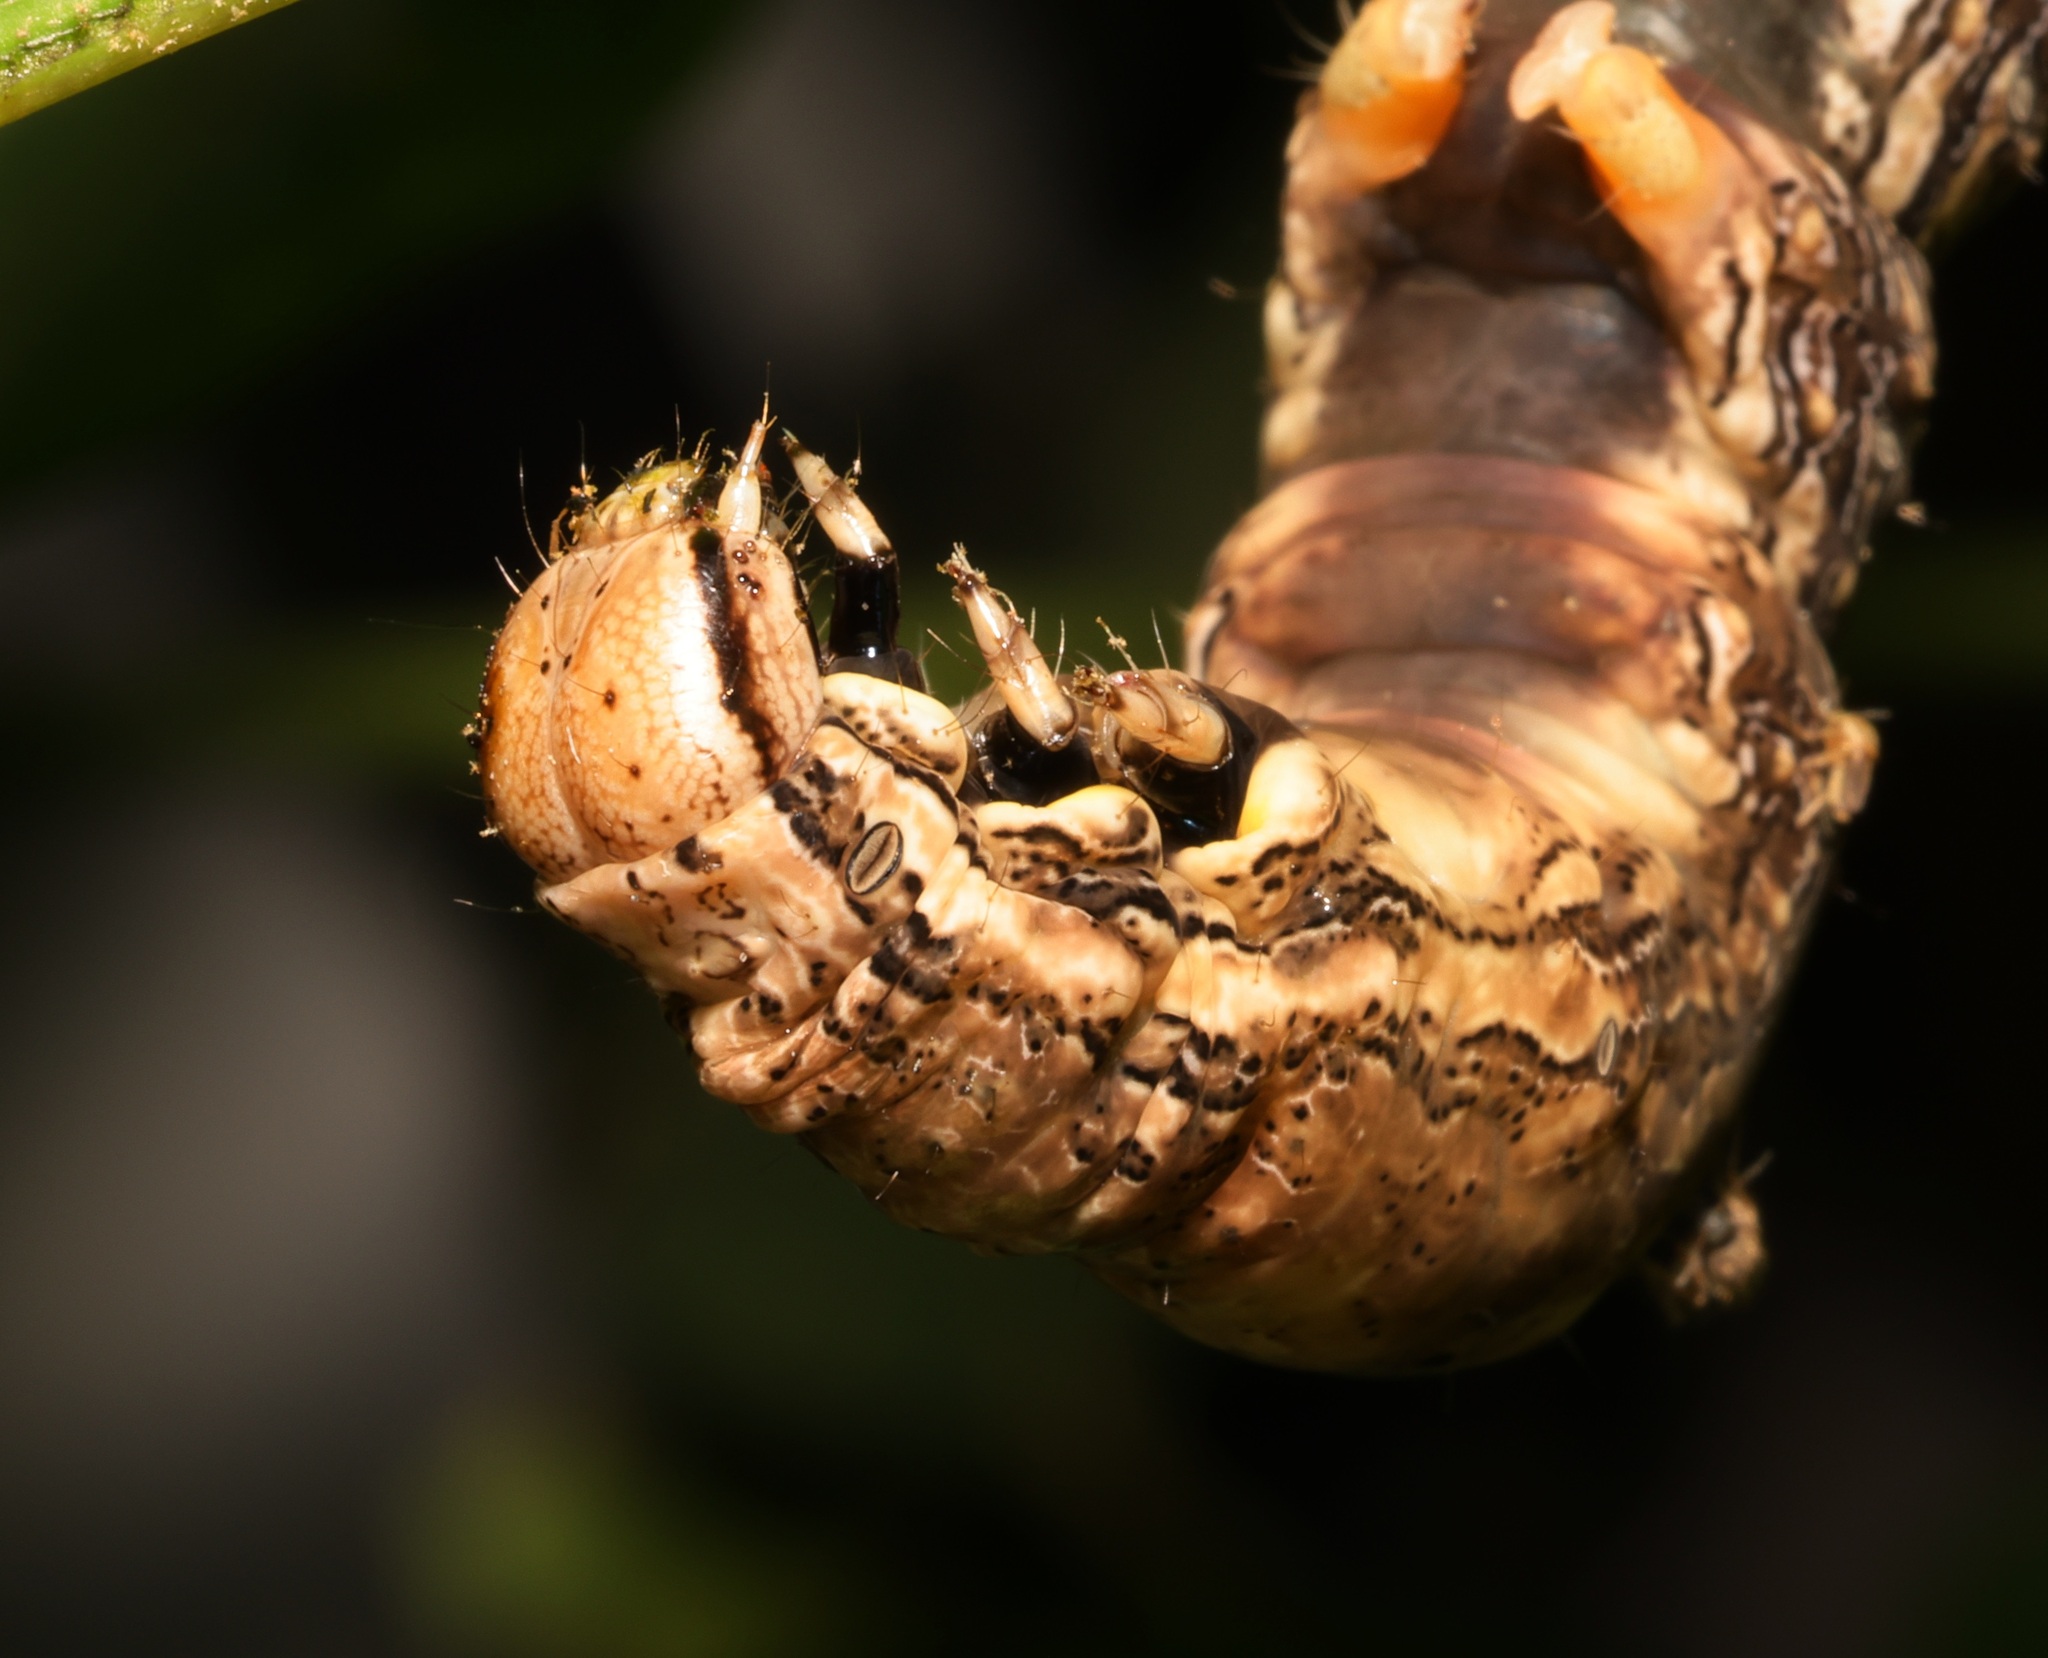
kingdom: Animalia
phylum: Arthropoda
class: Insecta
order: Lepidoptera
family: Erebidae
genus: Ischyja
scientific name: Ischyja ferrifracta
